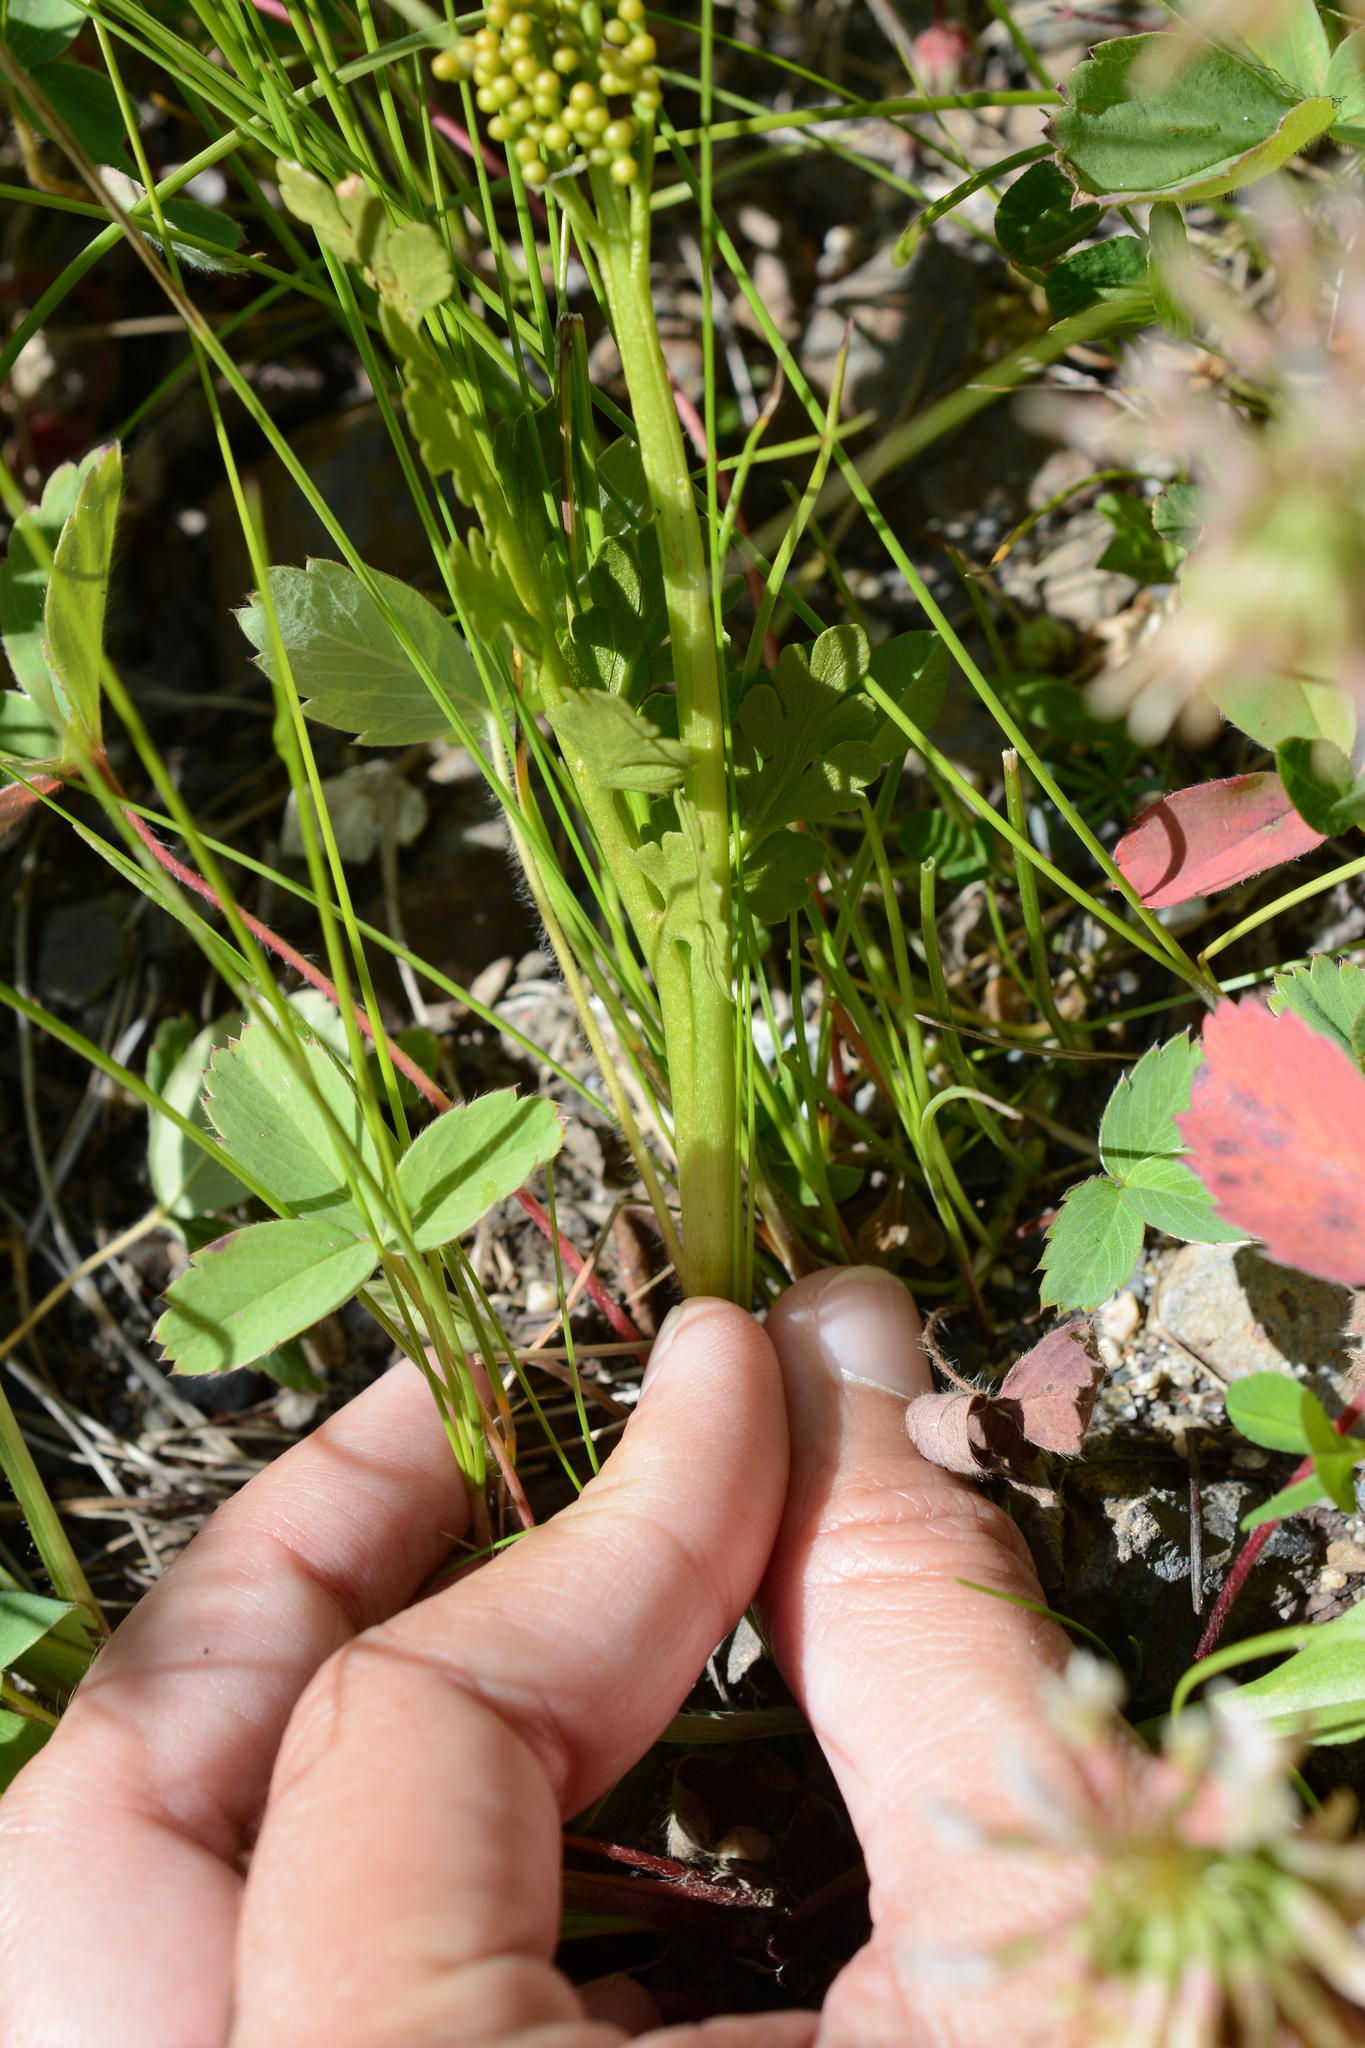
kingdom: Plantae
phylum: Tracheophyta
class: Polypodiopsida
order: Ophioglossales
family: Ophioglossaceae
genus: Botrychium
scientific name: Botrychium pinnatum
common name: Northwestern moonwort
